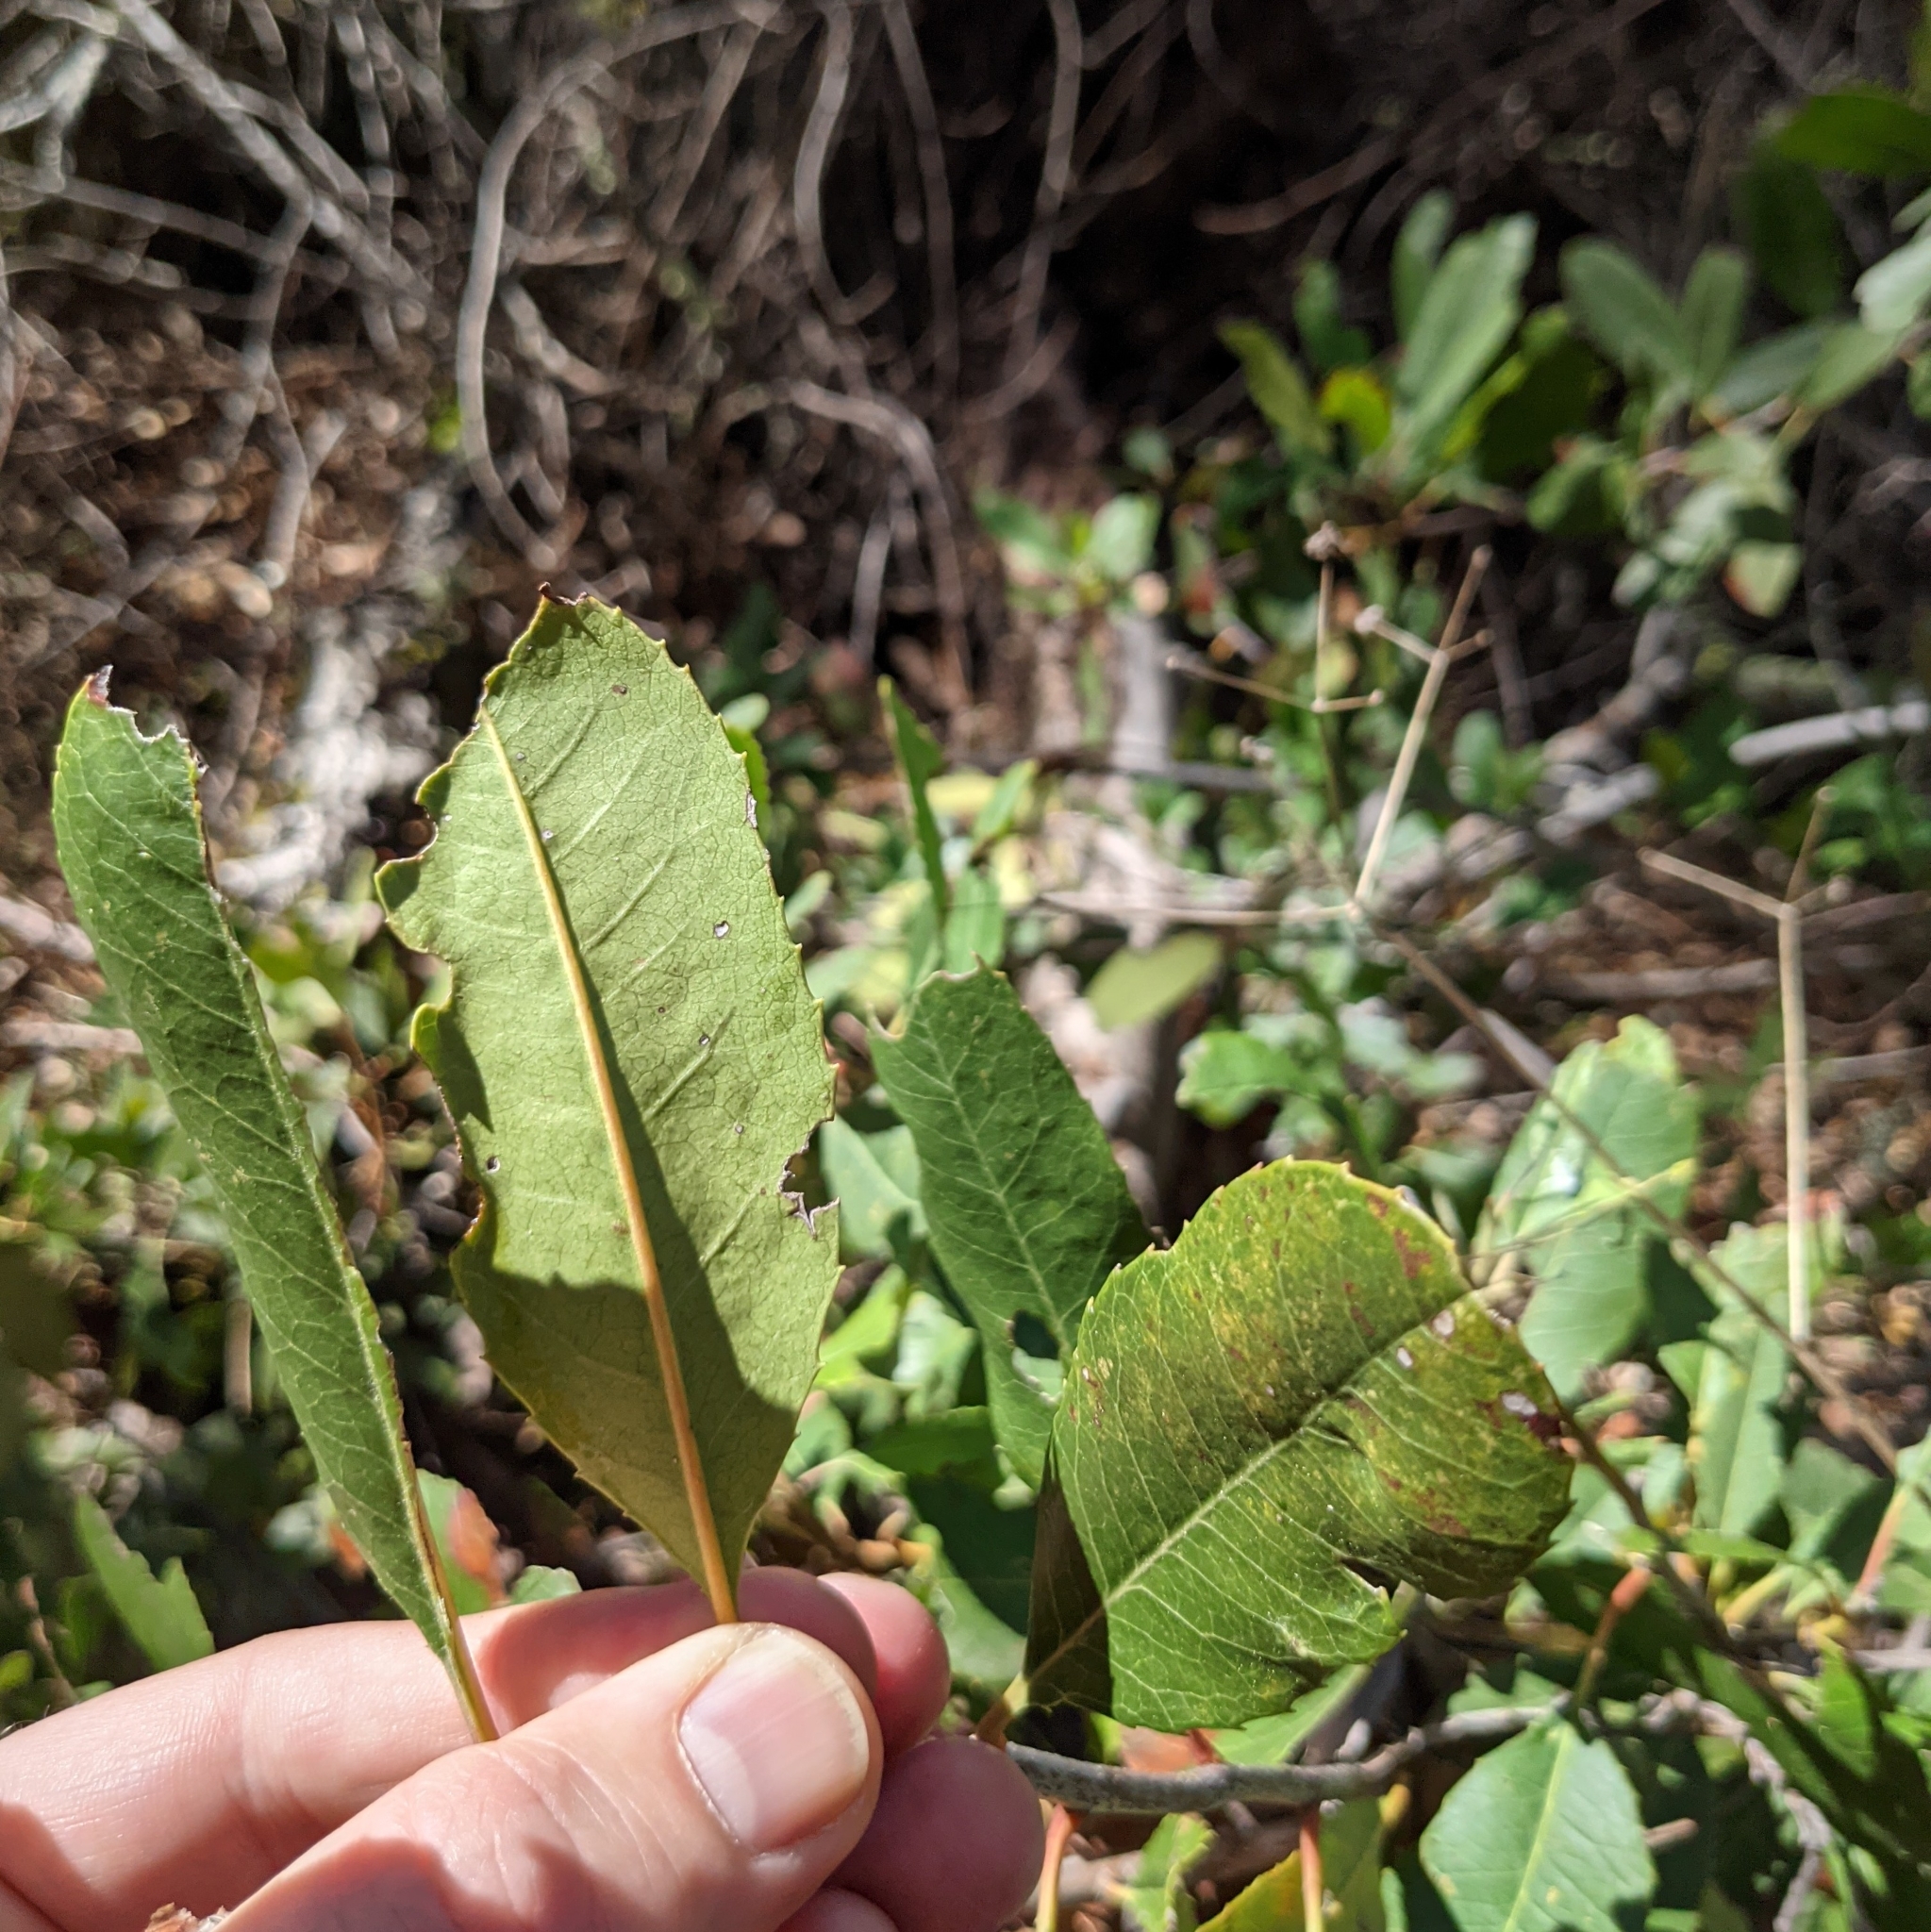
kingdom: Plantae
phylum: Tracheophyta
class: Magnoliopsida
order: Rosales
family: Rosaceae
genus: Heteromeles
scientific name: Heteromeles arbutifolia
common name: California-holly
